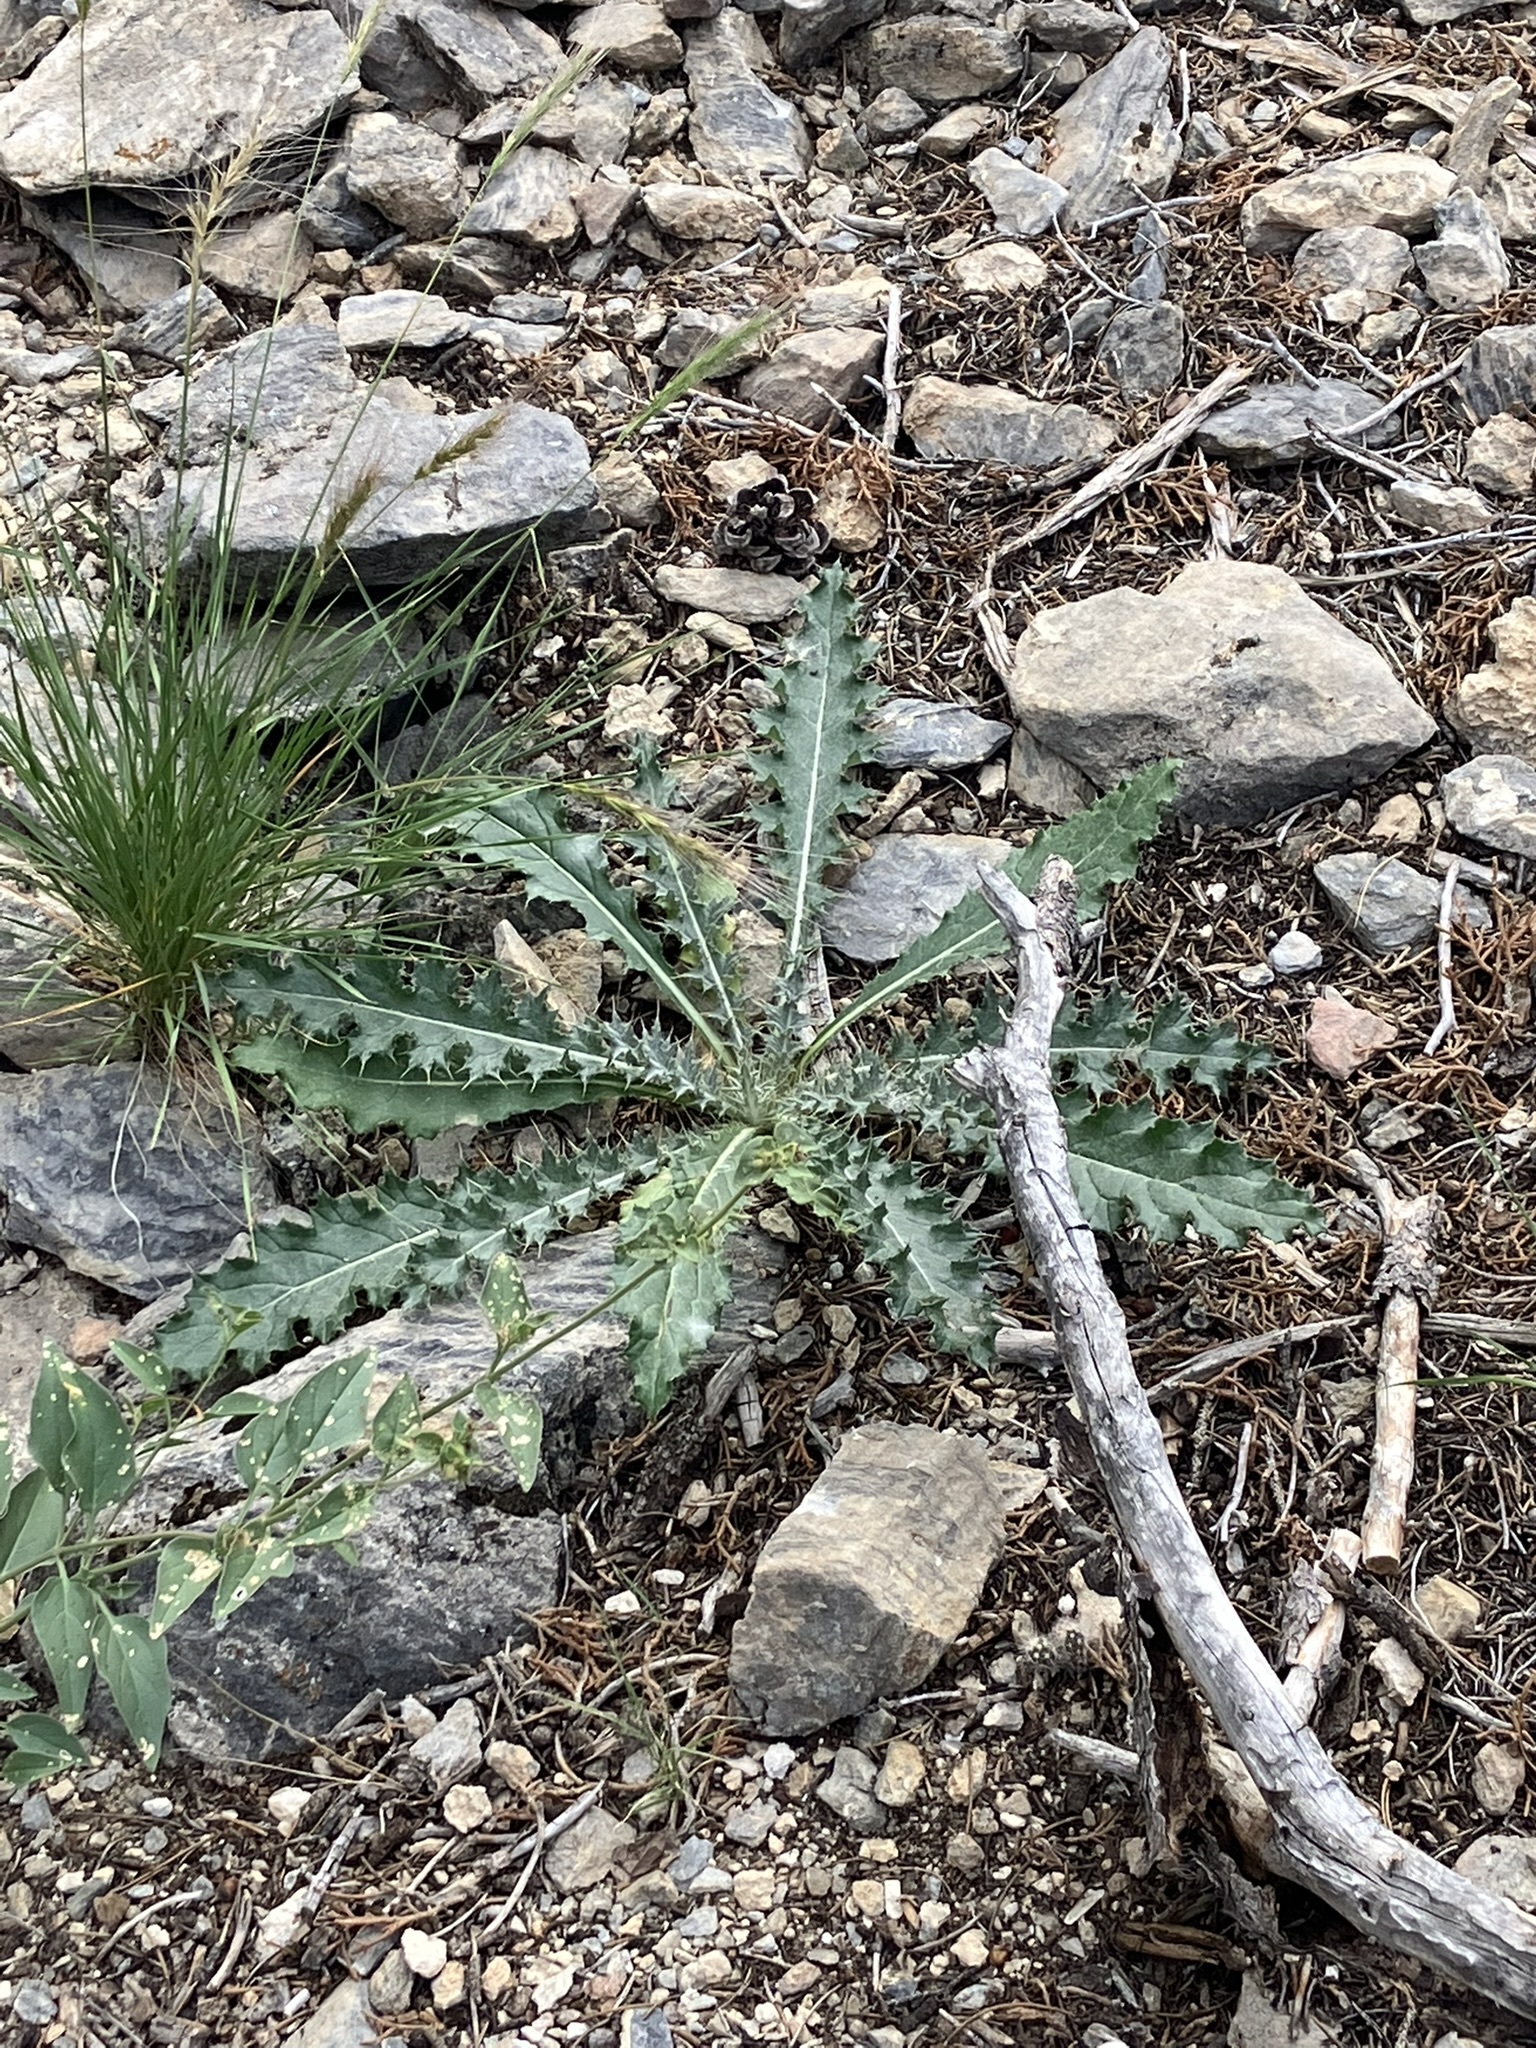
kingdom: Plantae
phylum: Tracheophyta
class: Magnoliopsida
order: Asterales
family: Asteraceae
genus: Cirsium
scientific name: Cirsium neomexicanum
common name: New mexico thistle
